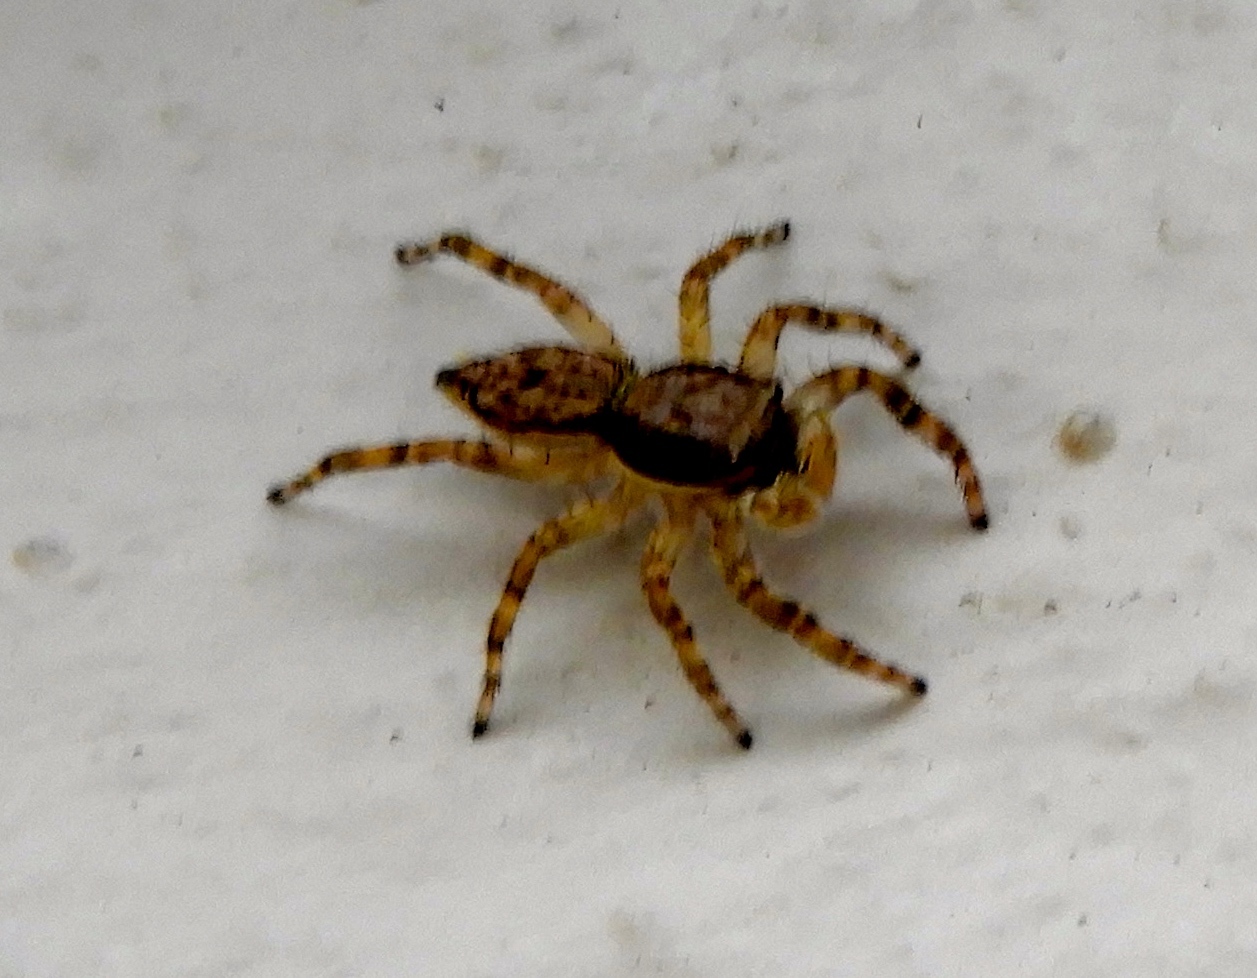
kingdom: Animalia
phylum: Arthropoda
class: Arachnida
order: Araneae
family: Salticidae
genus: Menemerus
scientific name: Menemerus bivittatus
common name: Gray wall jumper
